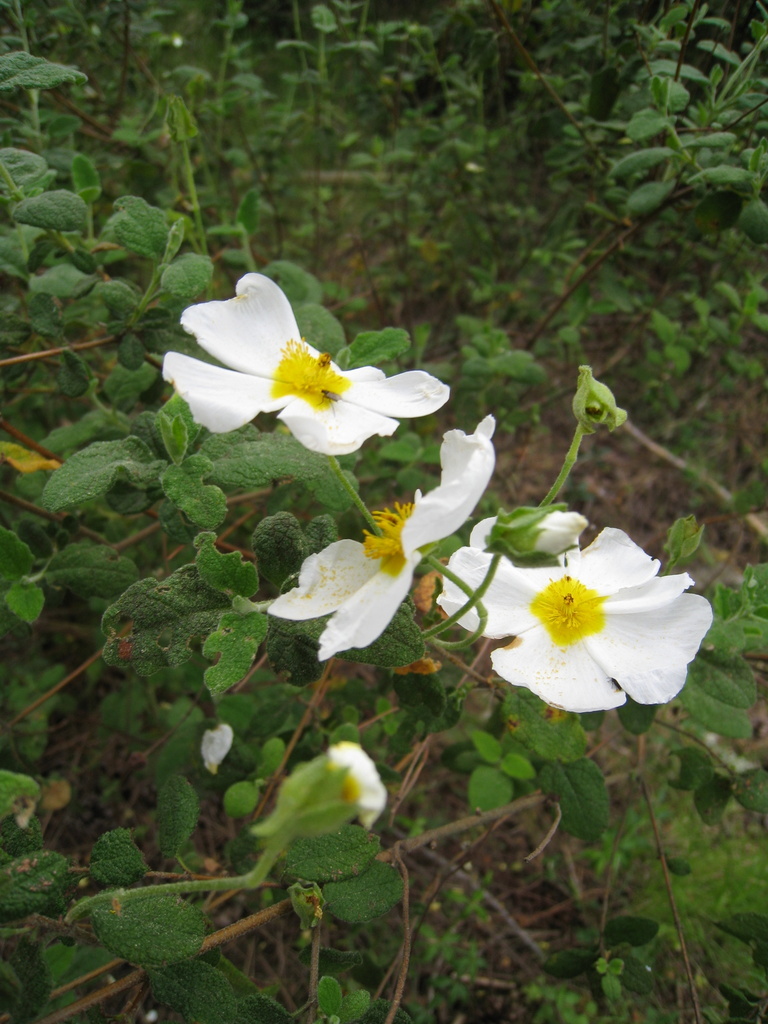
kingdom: Plantae
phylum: Tracheophyta
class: Magnoliopsida
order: Malvales
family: Cistaceae
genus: Cistus
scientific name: Cistus salviifolius
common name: Salvia cistus
